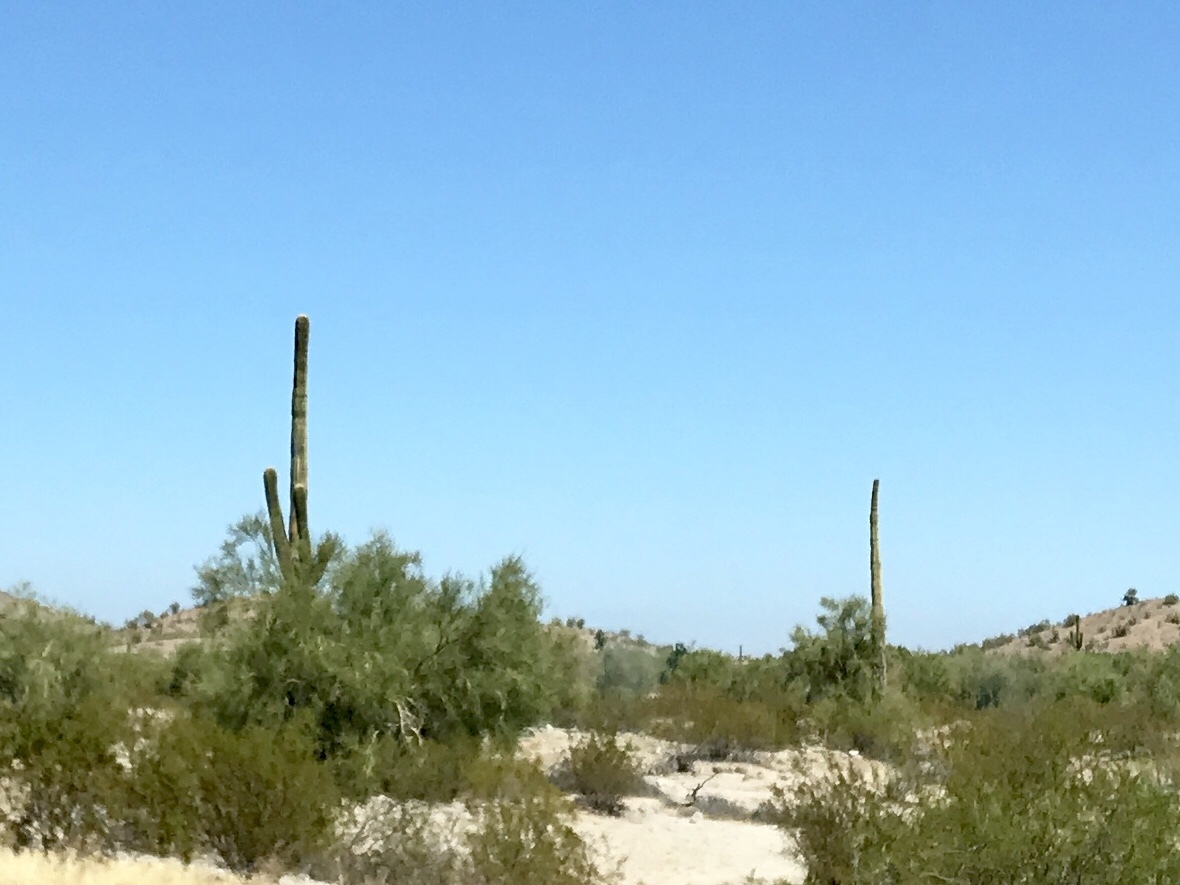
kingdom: Plantae
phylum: Tracheophyta
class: Magnoliopsida
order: Caryophyllales
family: Cactaceae
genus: Carnegiea
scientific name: Carnegiea gigantea
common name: Saguaro
